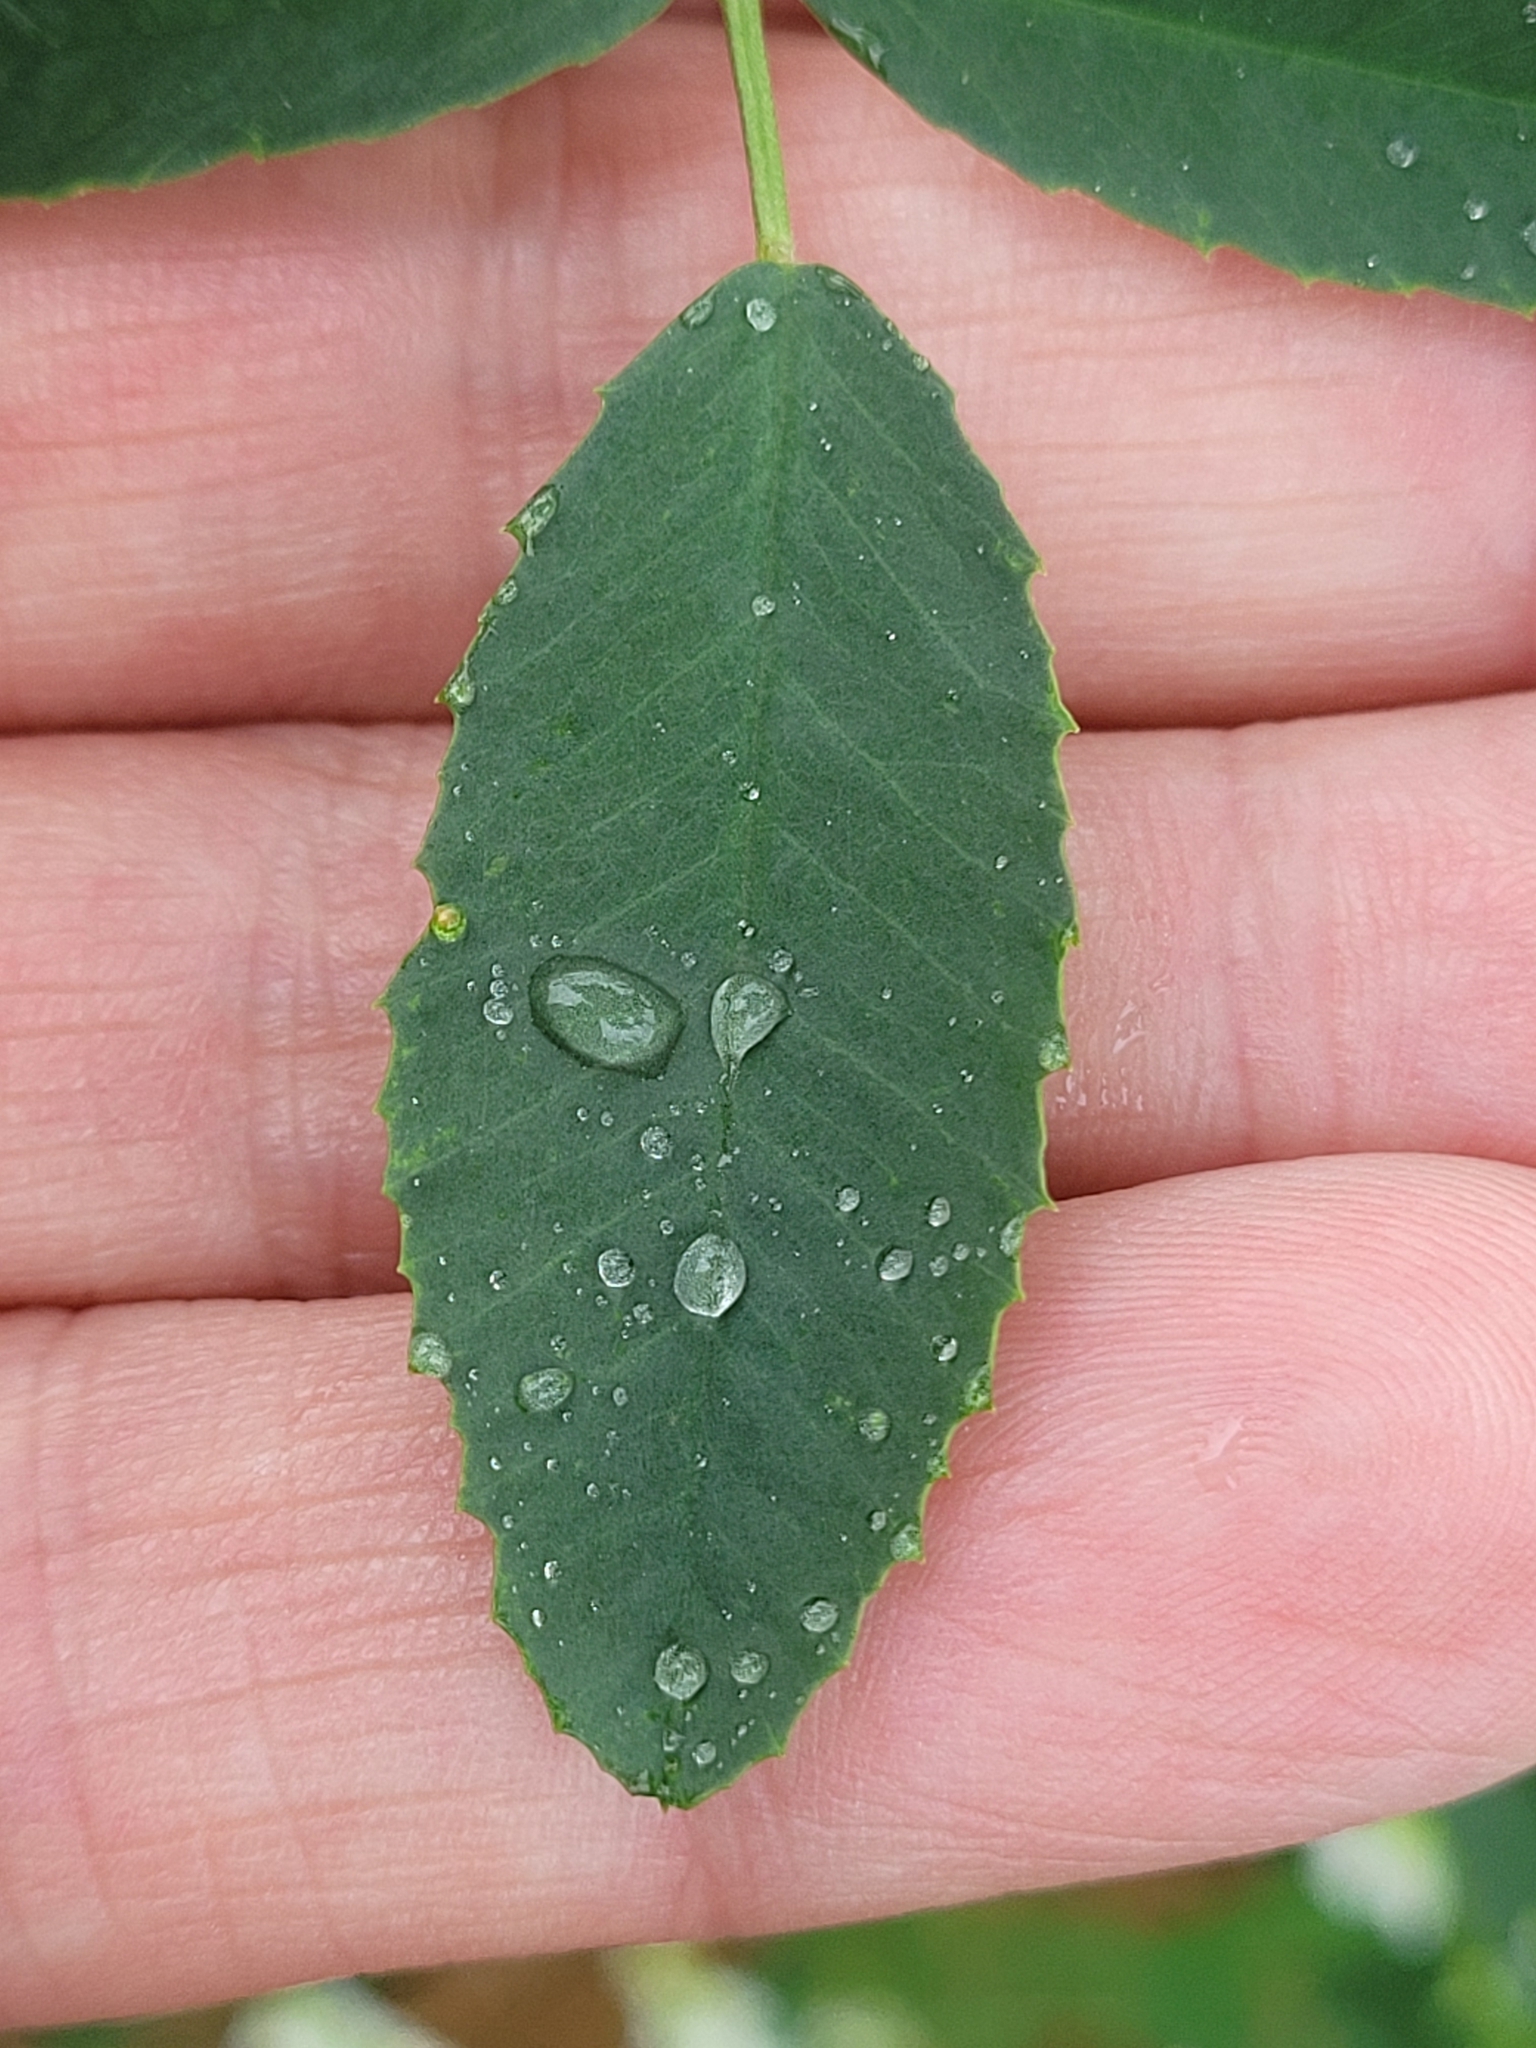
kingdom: Plantae
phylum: Tracheophyta
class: Magnoliopsida
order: Fabales
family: Fabaceae
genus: Melilotus
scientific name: Melilotus albus
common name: White melilot
